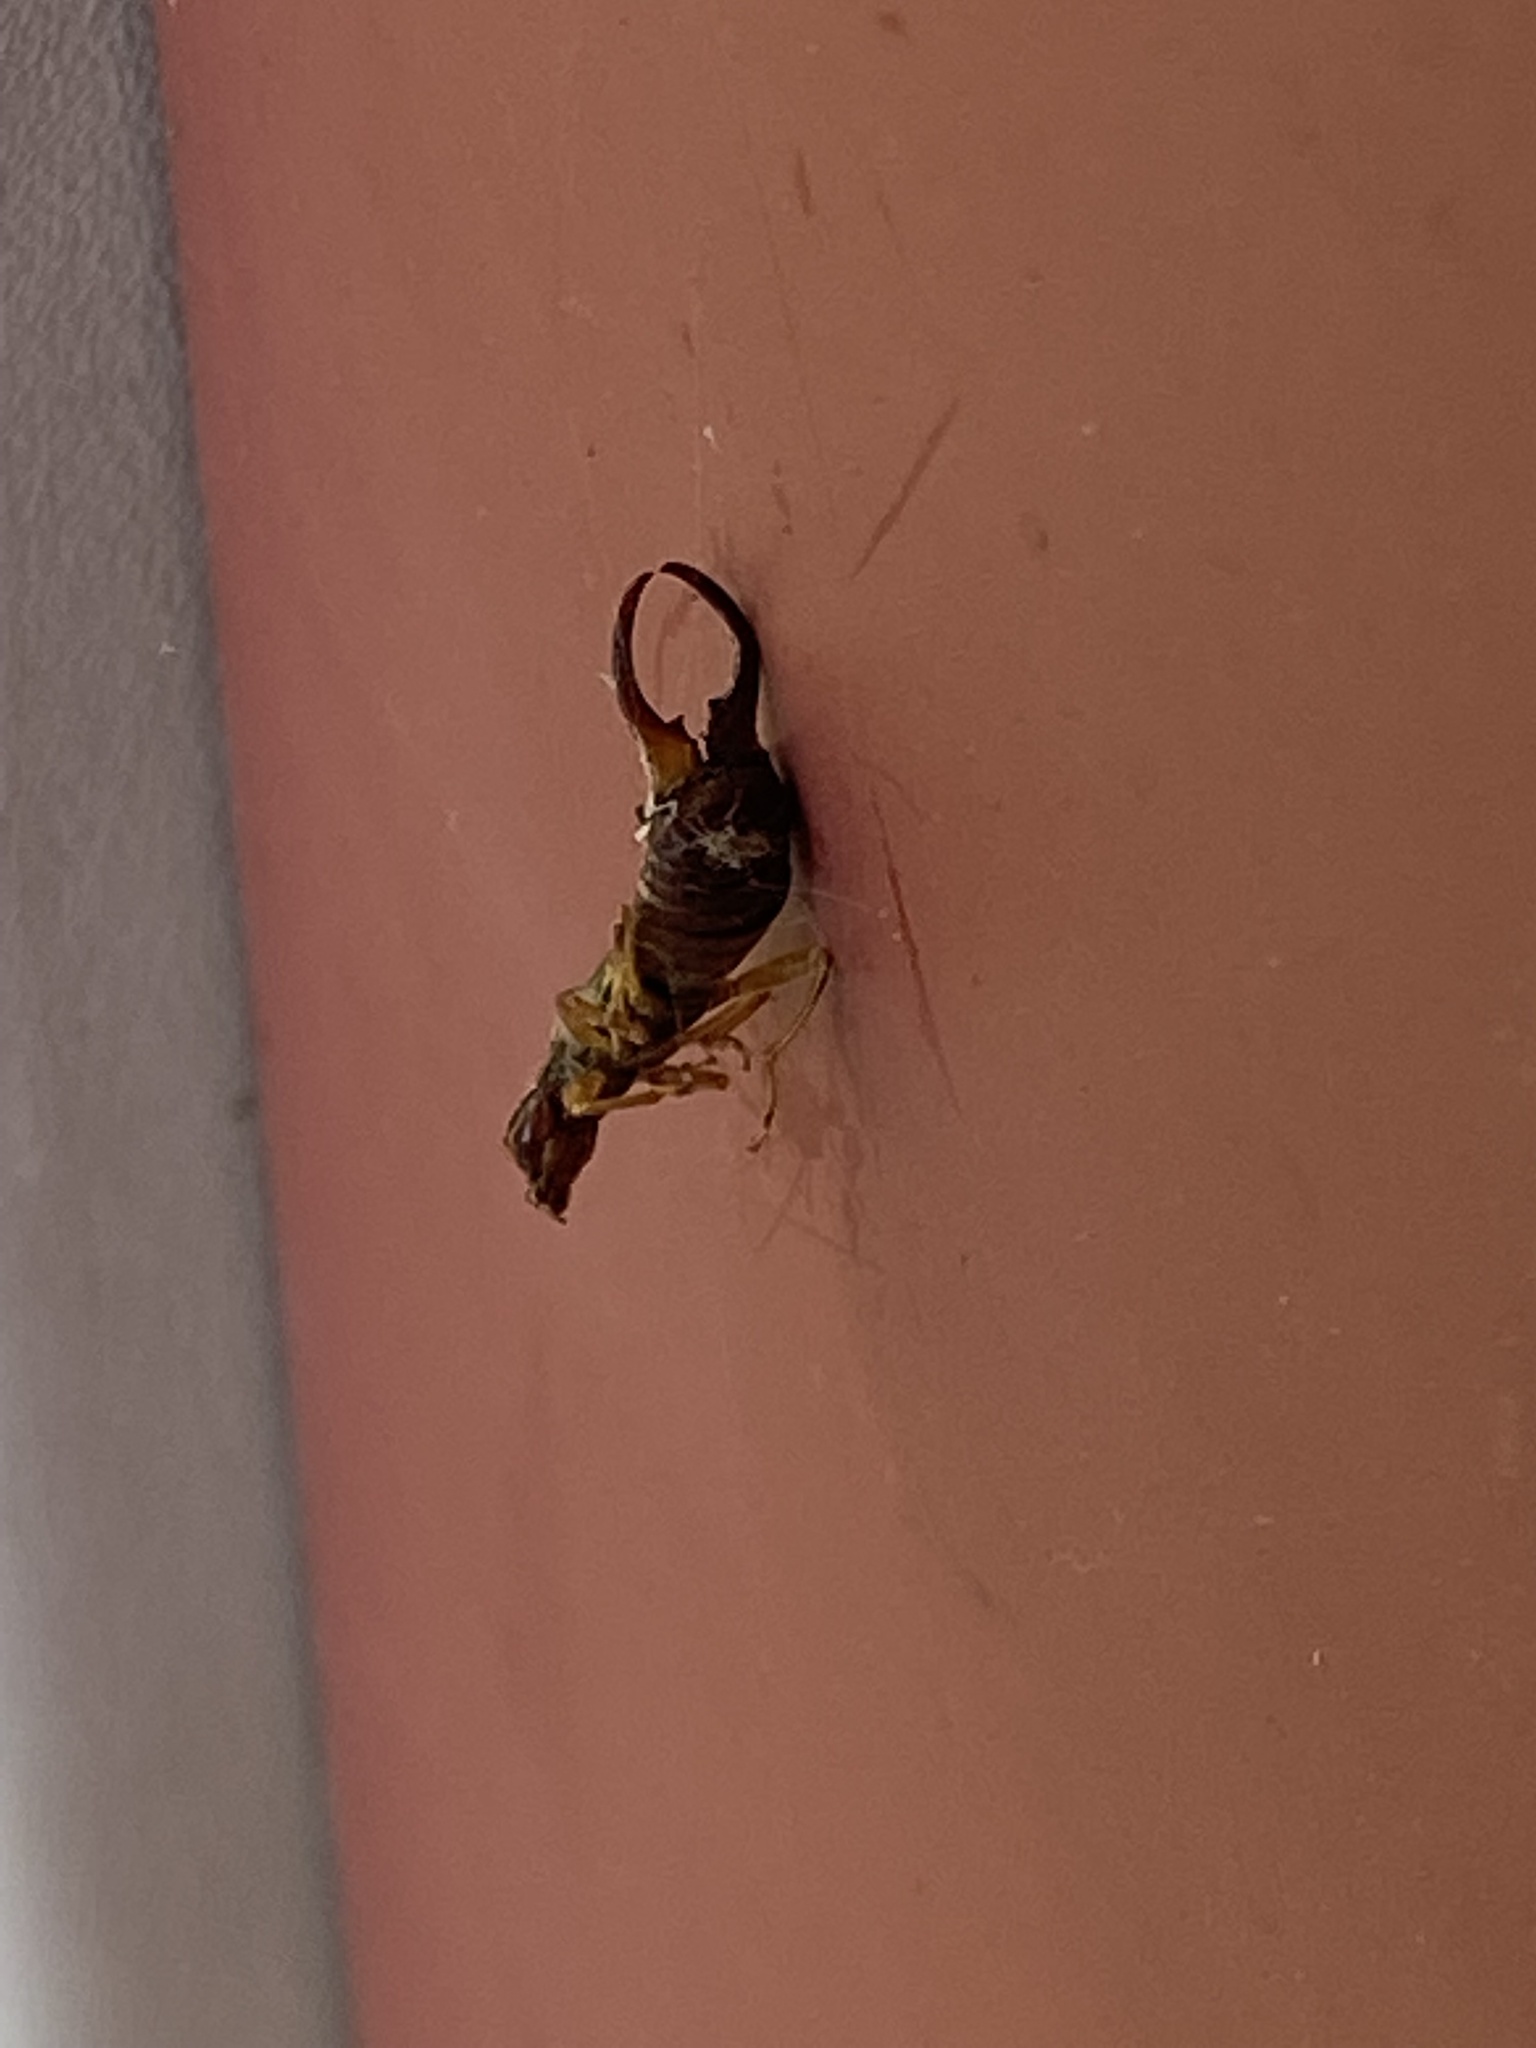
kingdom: Animalia
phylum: Arthropoda
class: Insecta
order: Dermaptera
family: Forficulidae
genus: Forficula
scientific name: Forficula
